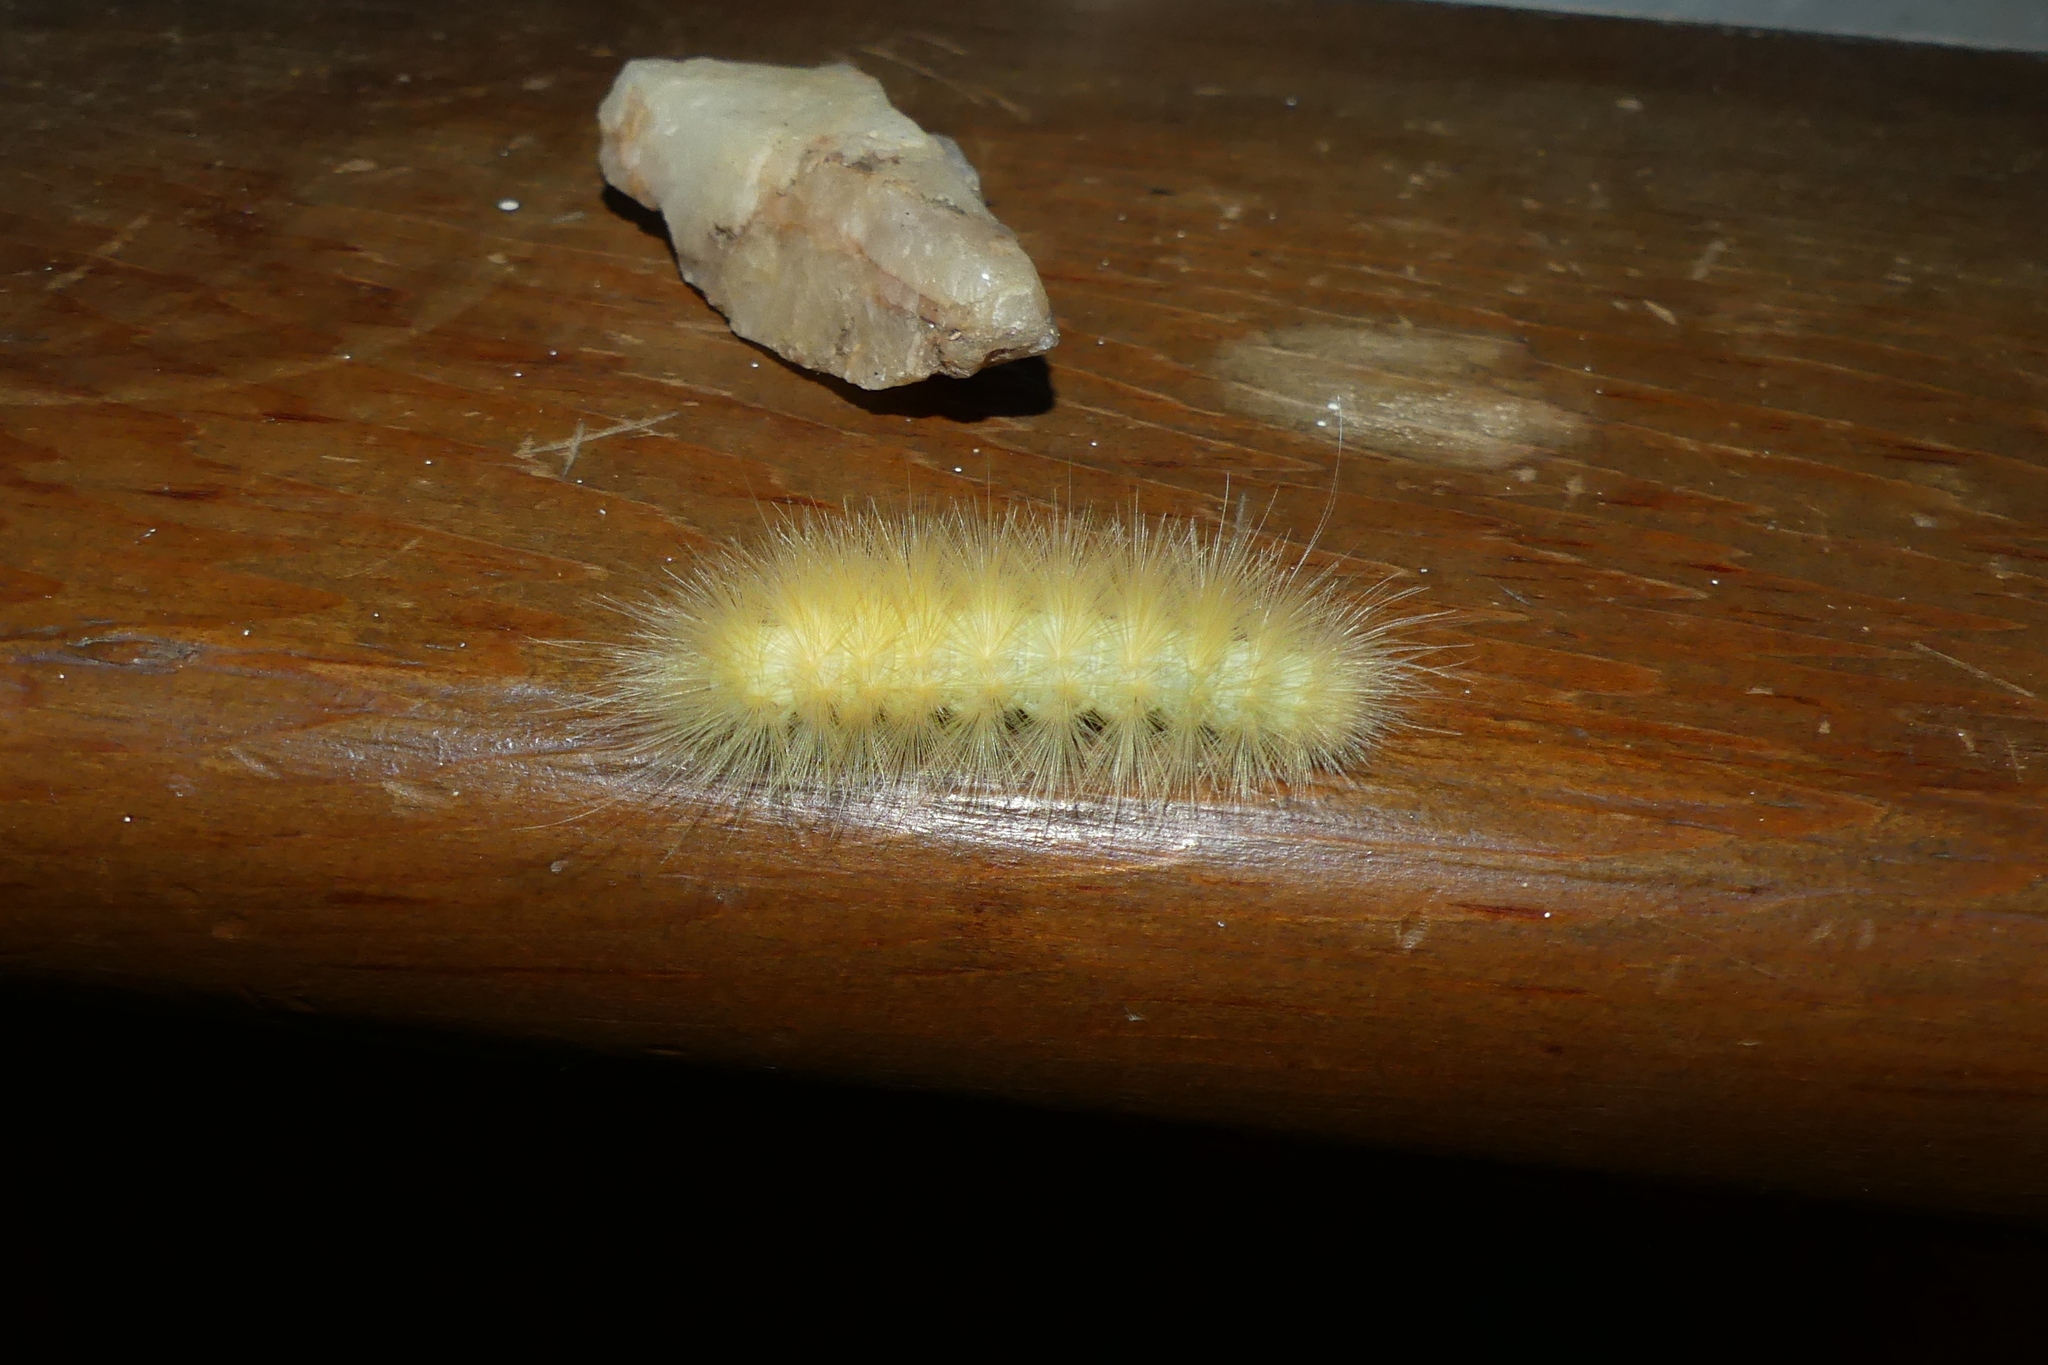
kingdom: Animalia
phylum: Arthropoda
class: Insecta
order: Lepidoptera
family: Erebidae
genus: Spilosoma
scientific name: Spilosoma virginica
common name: Virginia tiger moth
